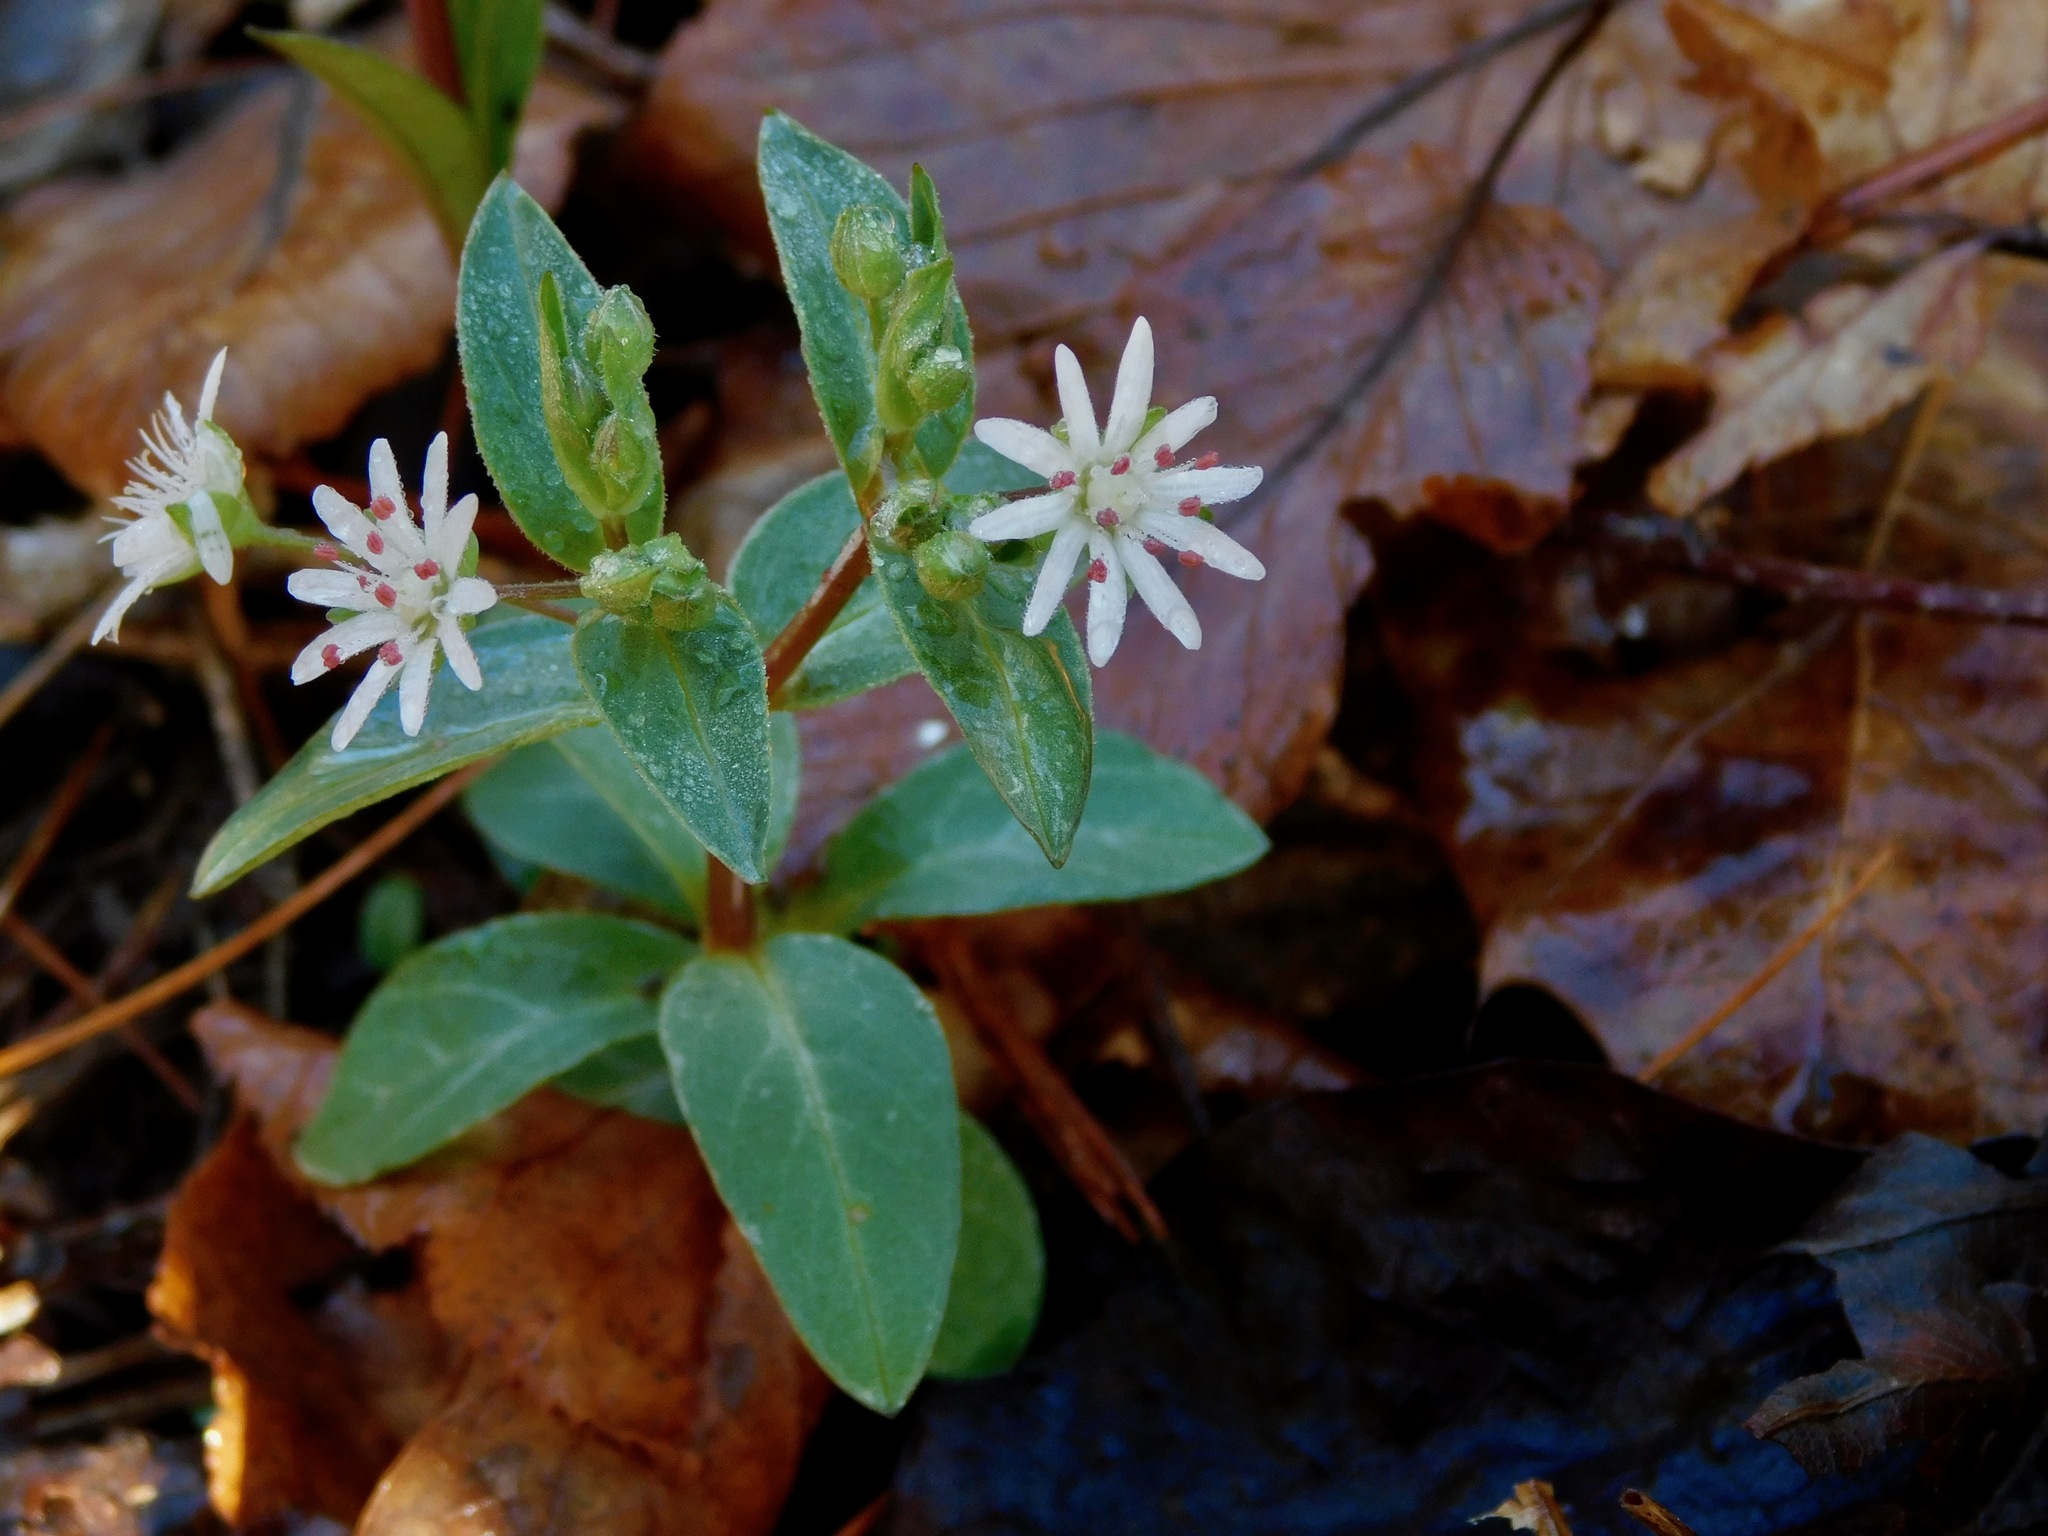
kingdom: Plantae
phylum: Tracheophyta
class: Magnoliopsida
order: Caryophyllales
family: Caryophyllaceae
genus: Stellaria
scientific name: Stellaria pubera
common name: Star chickweed
